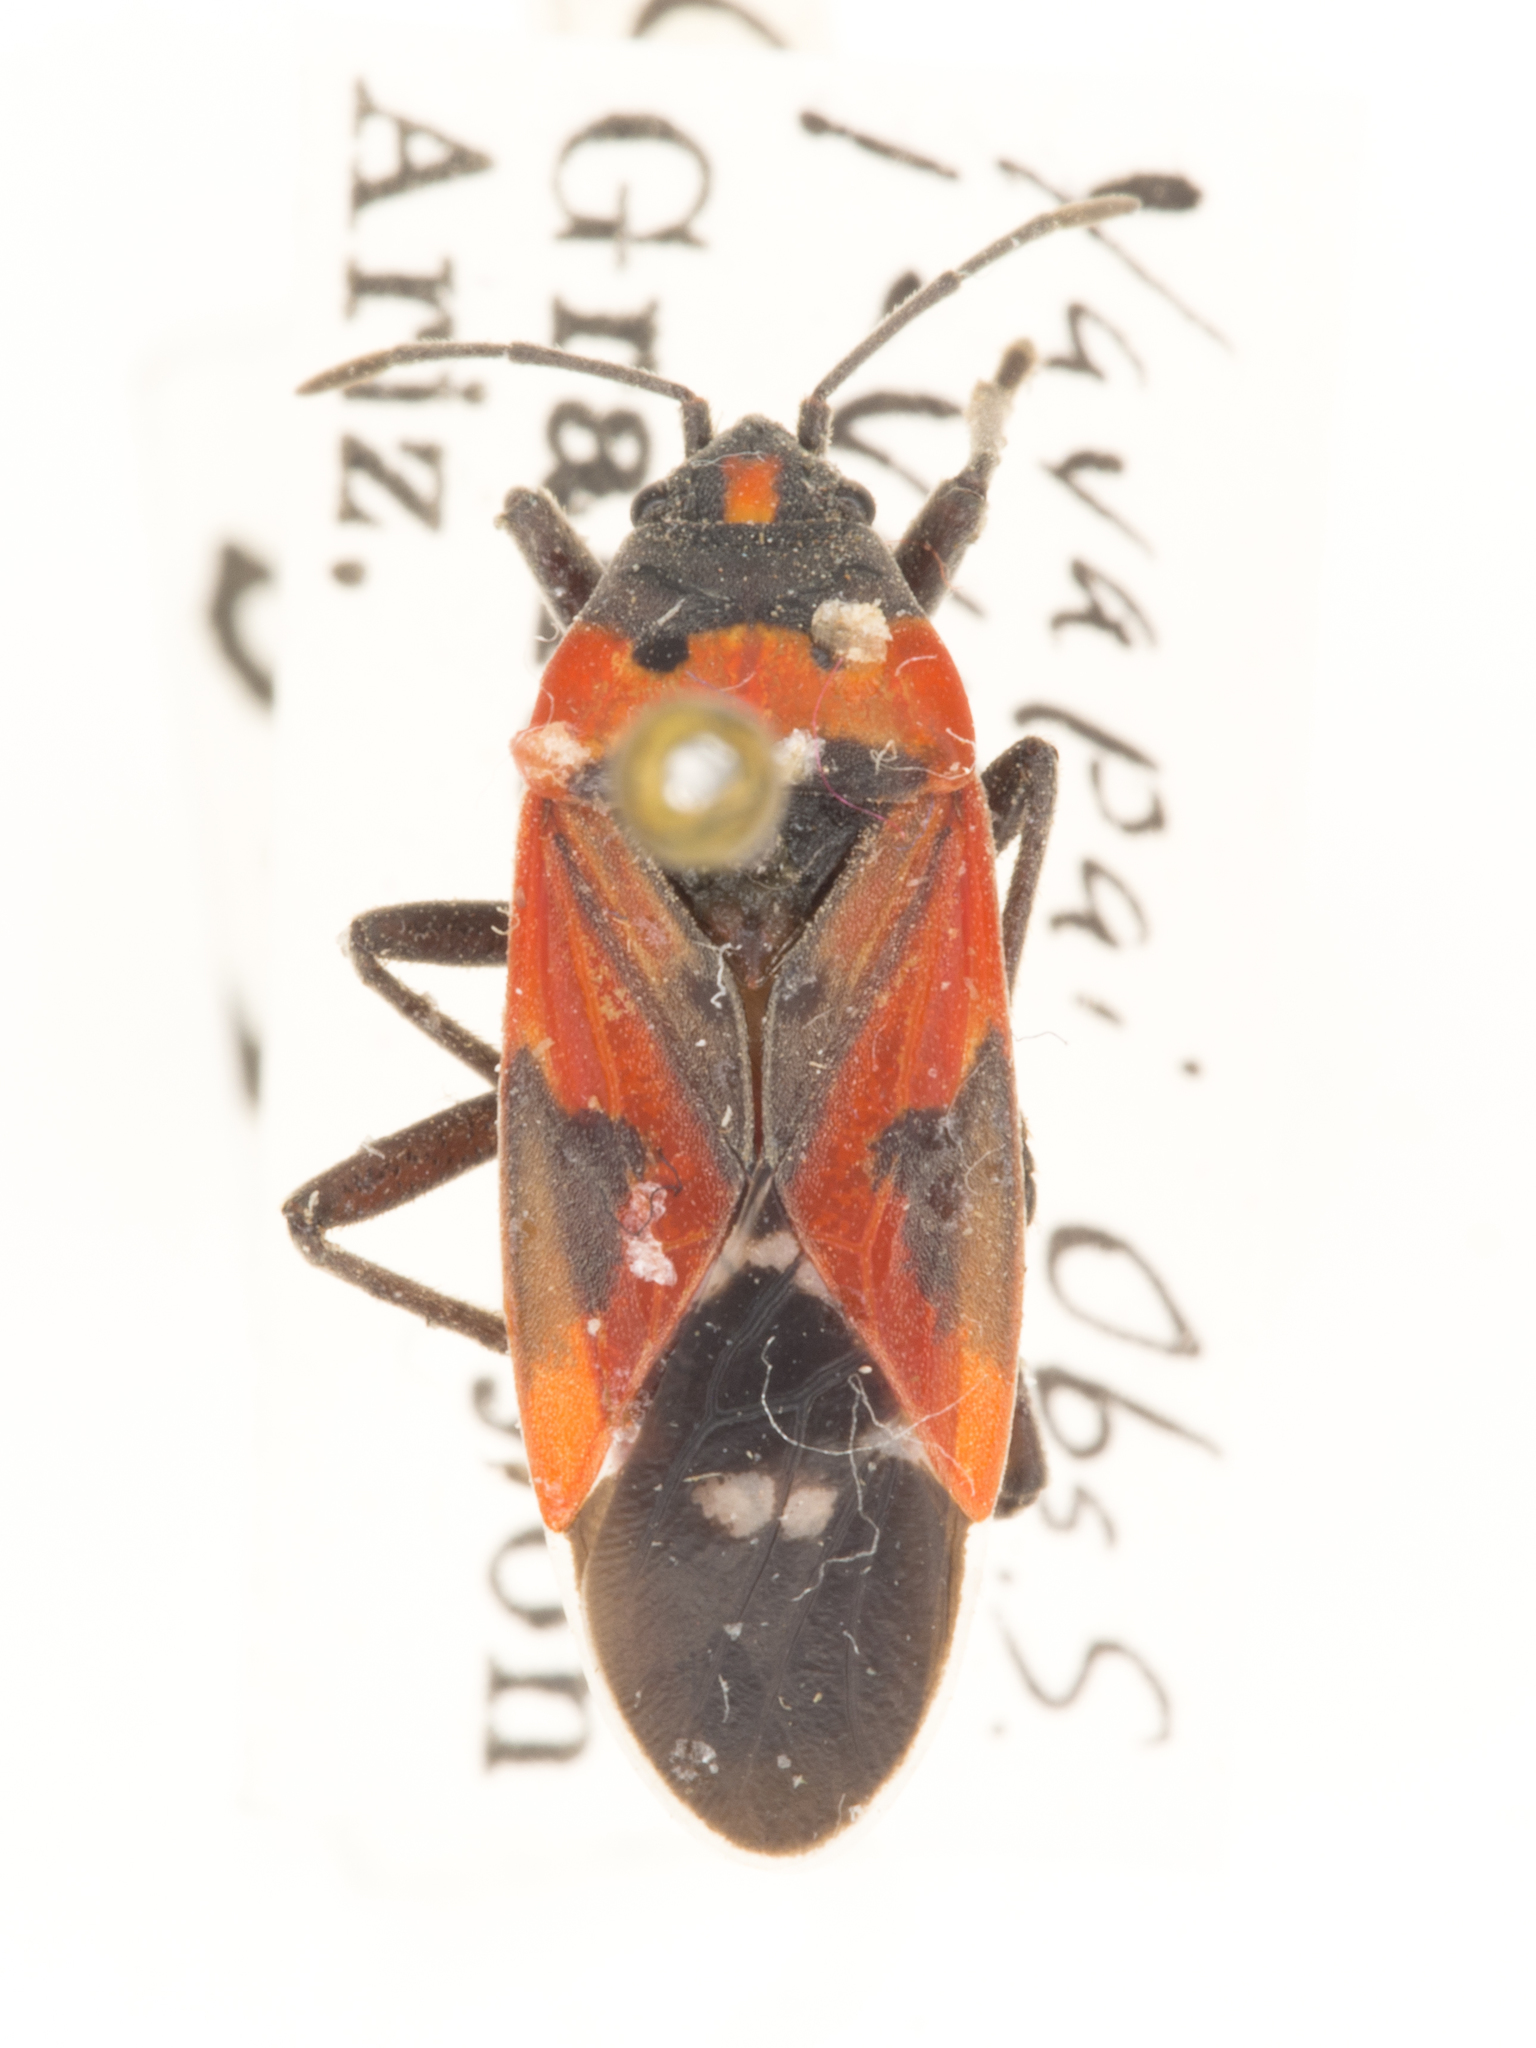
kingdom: Animalia
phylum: Arthropoda
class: Insecta
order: Hemiptera
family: Lygaeidae
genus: Lygaeus
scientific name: Lygaeus reclivatus
